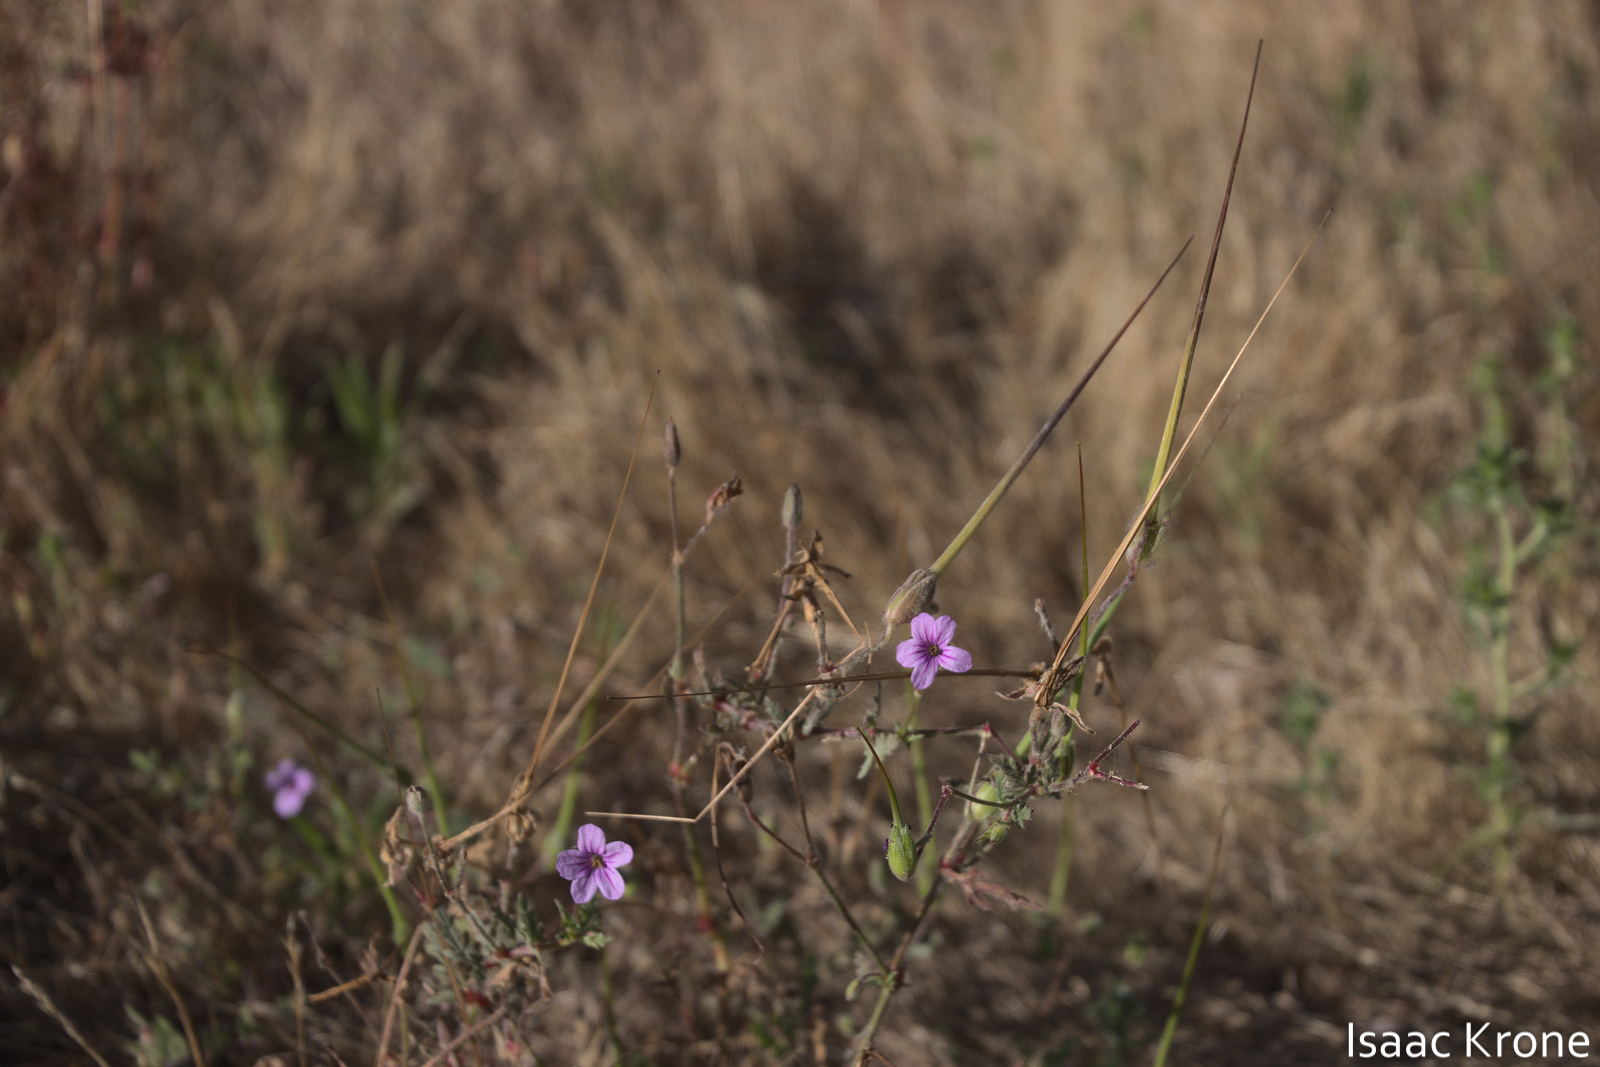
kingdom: Plantae
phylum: Tracheophyta
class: Magnoliopsida
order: Geraniales
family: Geraniaceae
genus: Erodium
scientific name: Erodium botrys
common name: Mediterranean stork's-bill
